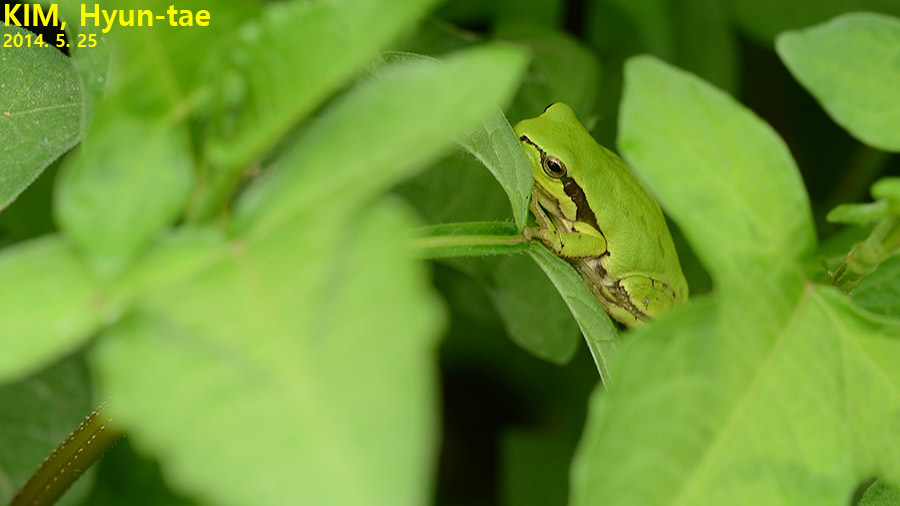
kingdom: Animalia
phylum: Chordata
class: Amphibia
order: Anura
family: Hylidae
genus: Dryophytes
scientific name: Dryophytes immaculatus
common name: North china treefrog
